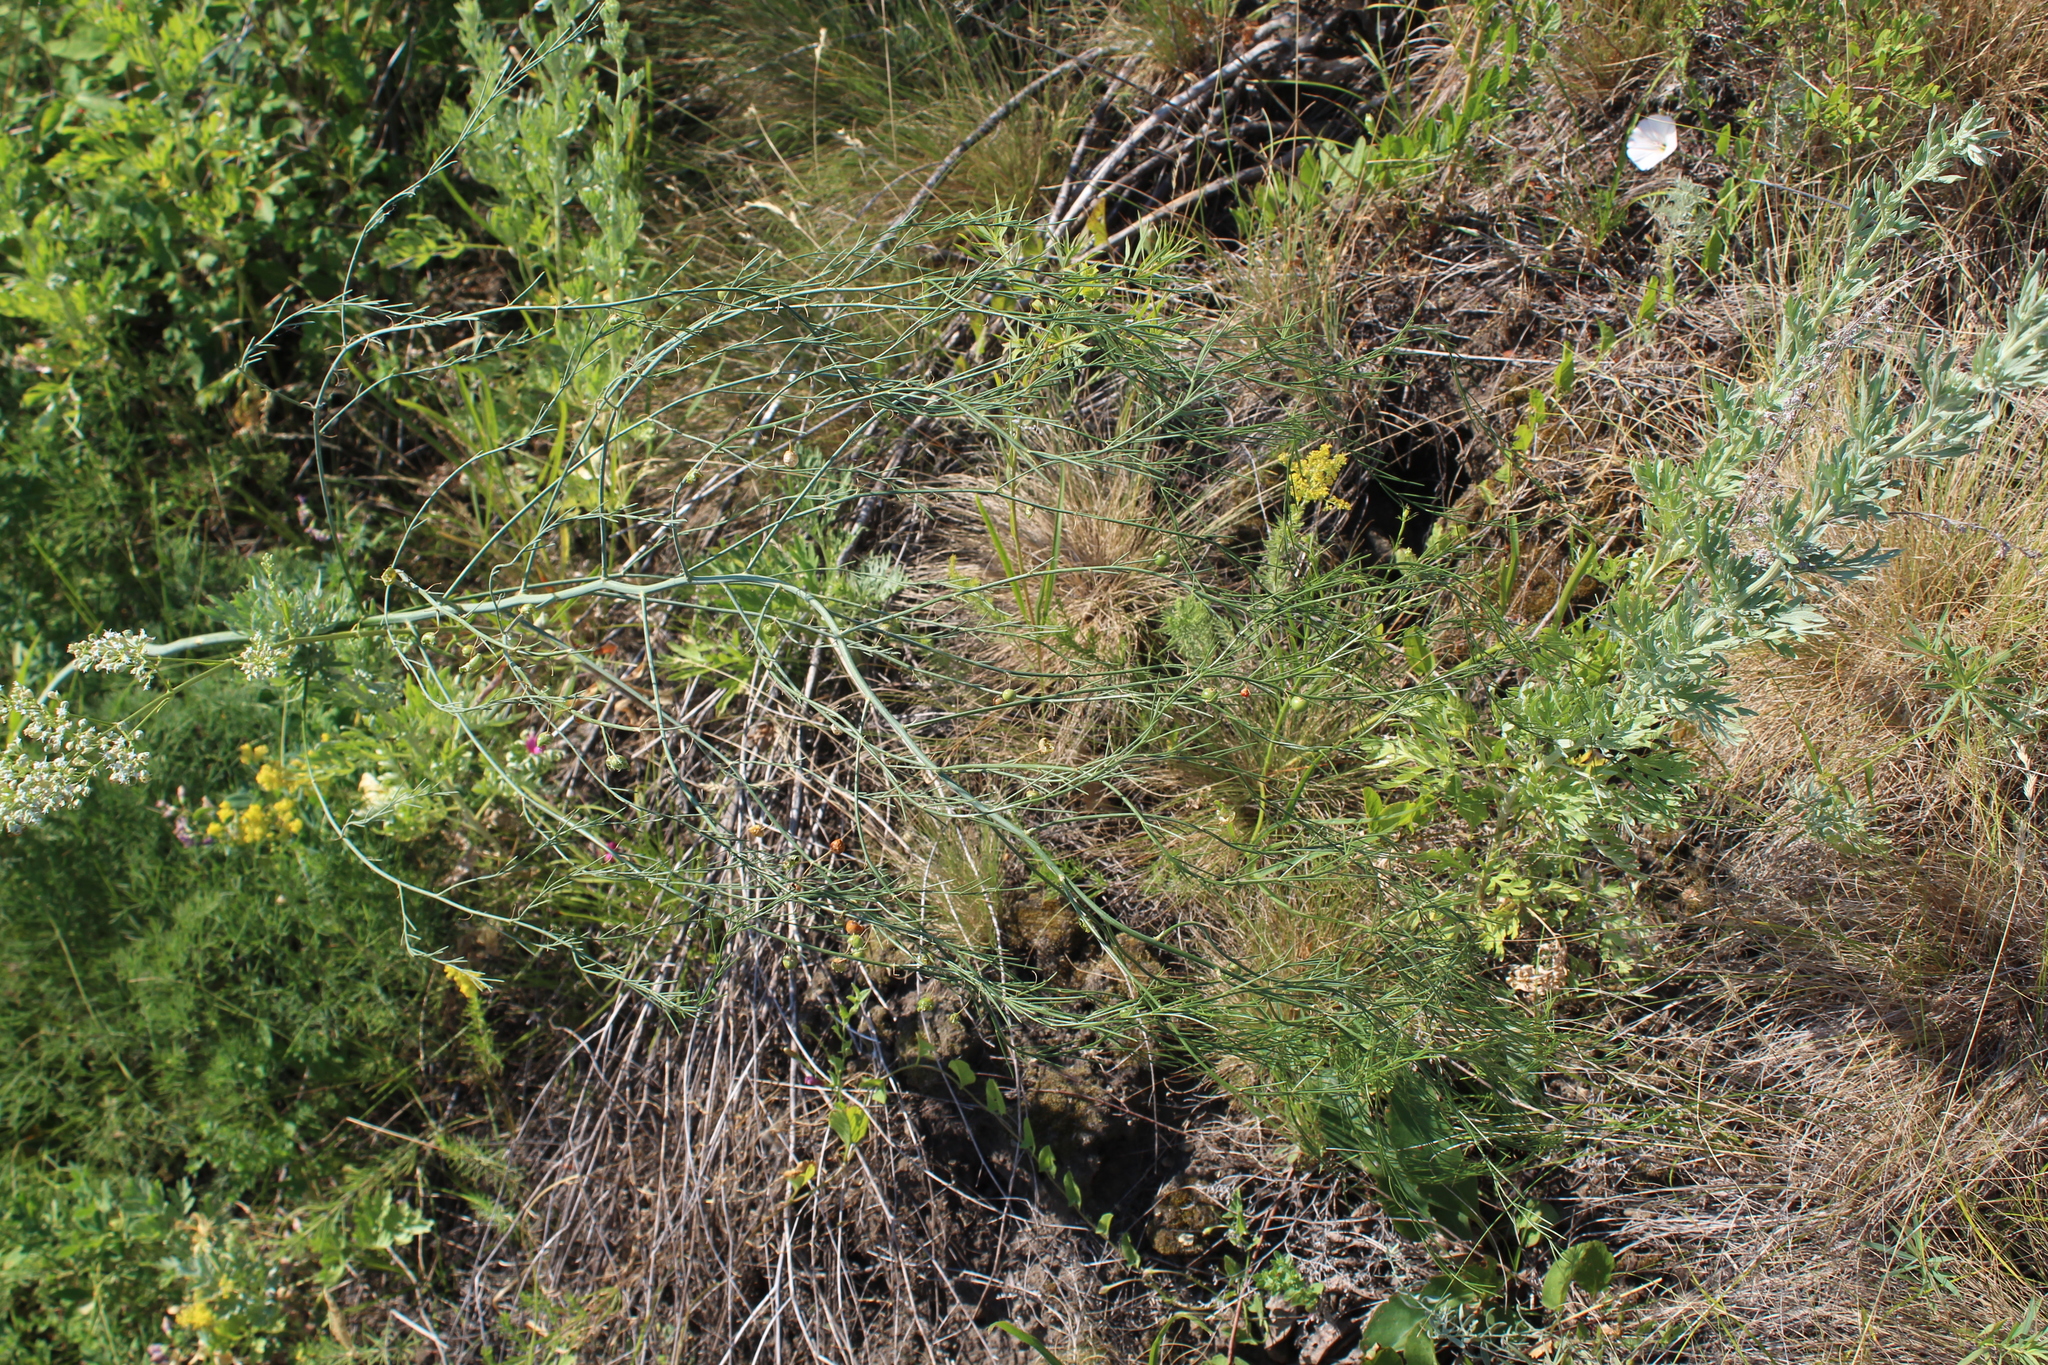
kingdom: Plantae
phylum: Tracheophyta
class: Liliopsida
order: Asparagales
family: Asparagaceae
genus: Asparagus
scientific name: Asparagus officinalis
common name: Garden asparagus
